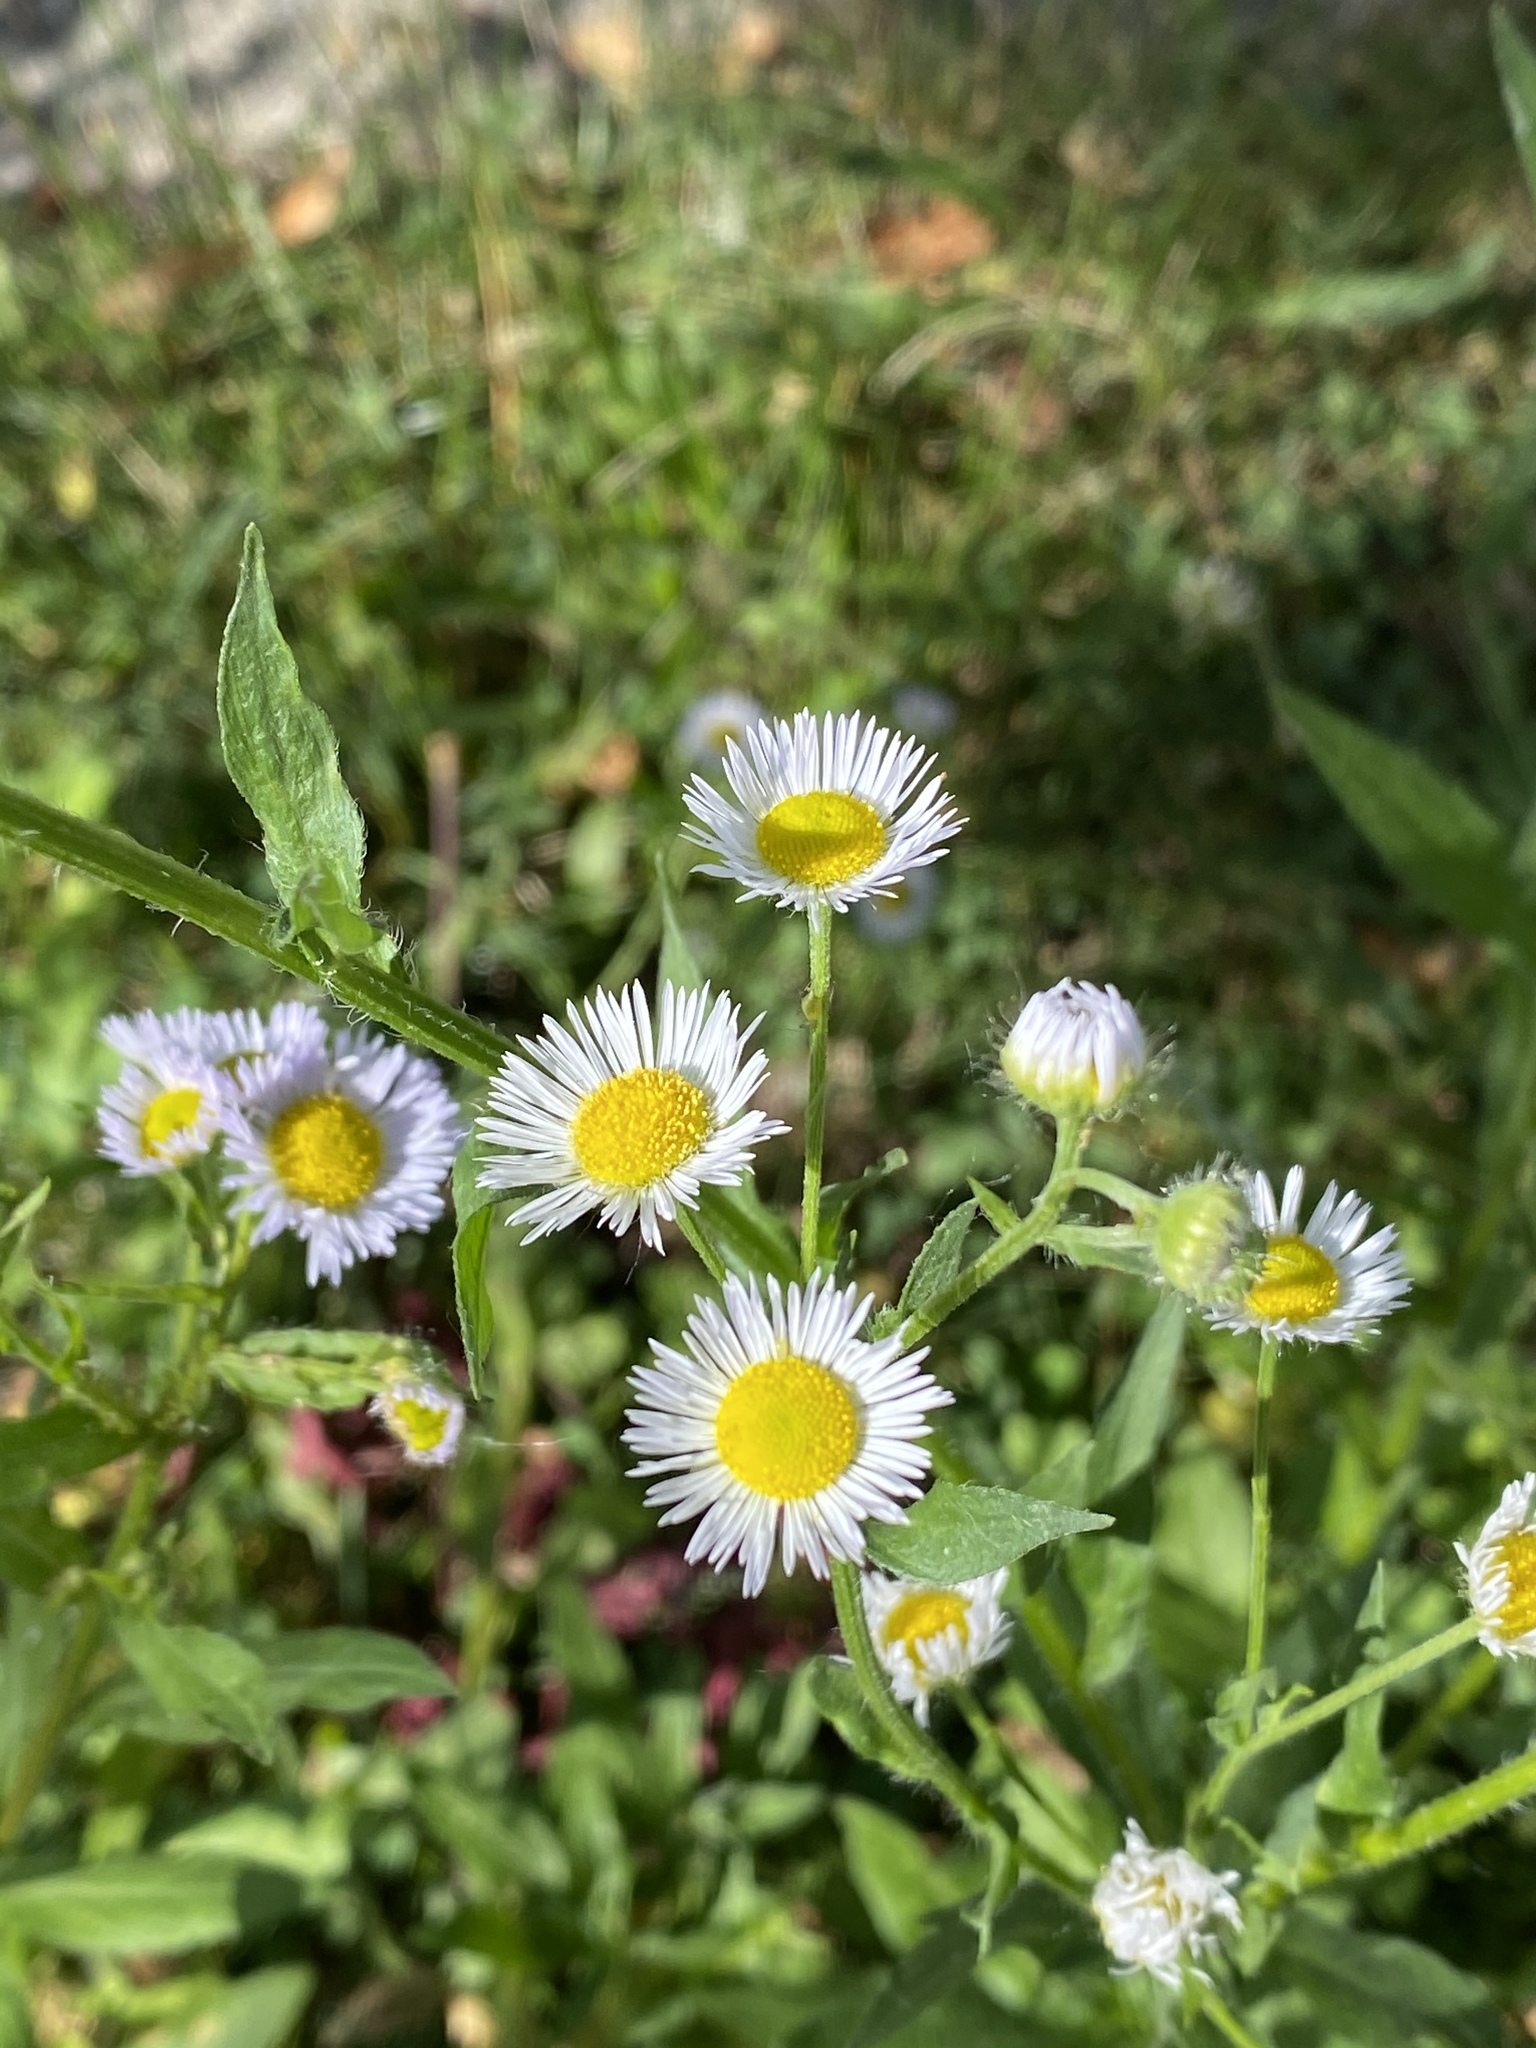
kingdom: Plantae
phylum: Tracheophyta
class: Magnoliopsida
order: Asterales
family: Asteraceae
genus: Erigeron
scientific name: Erigeron annuus
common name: Tall fleabane
